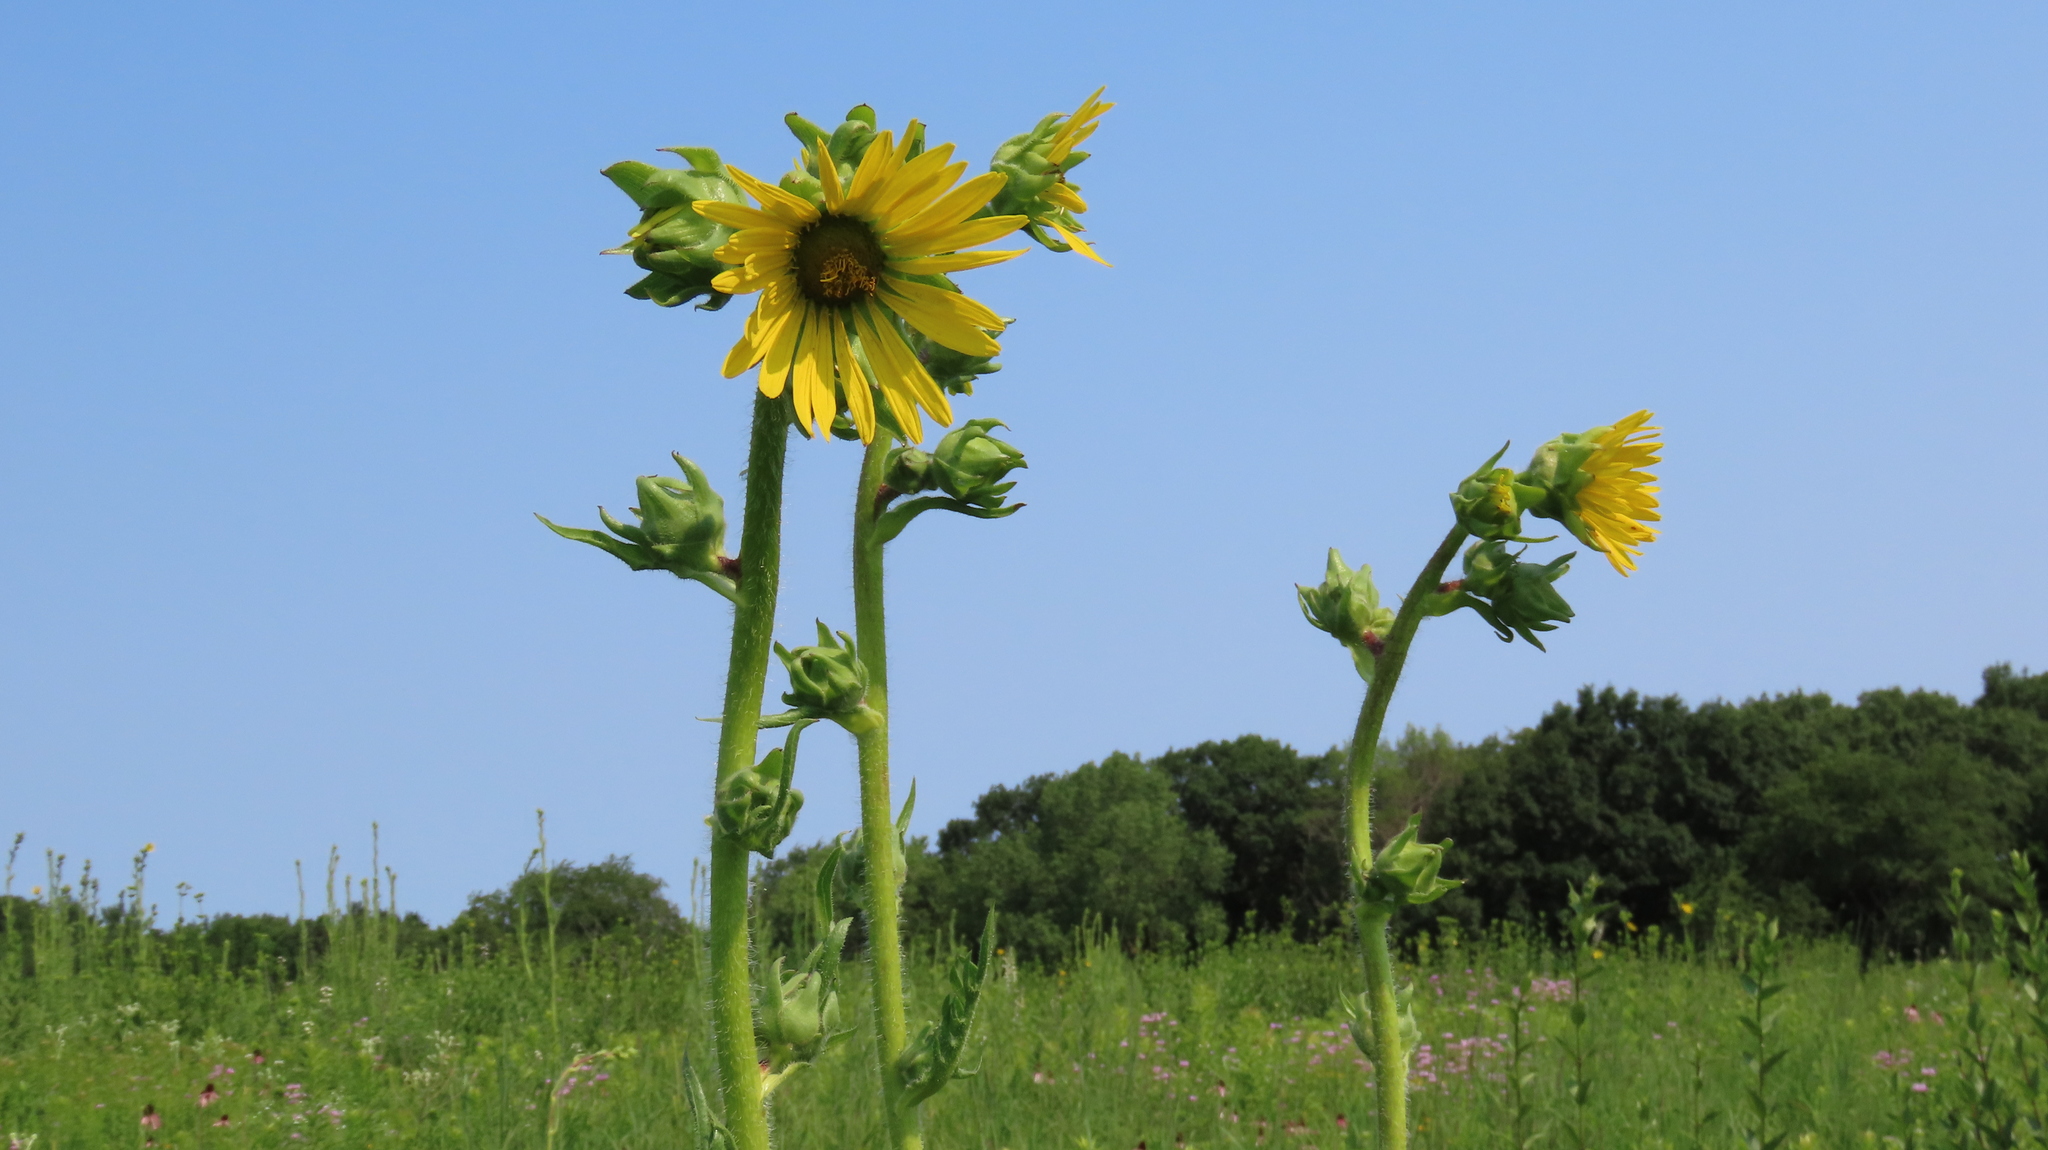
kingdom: Plantae
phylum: Tracheophyta
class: Magnoliopsida
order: Asterales
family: Asteraceae
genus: Silphium
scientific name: Silphium laciniatum
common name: Polarplant
